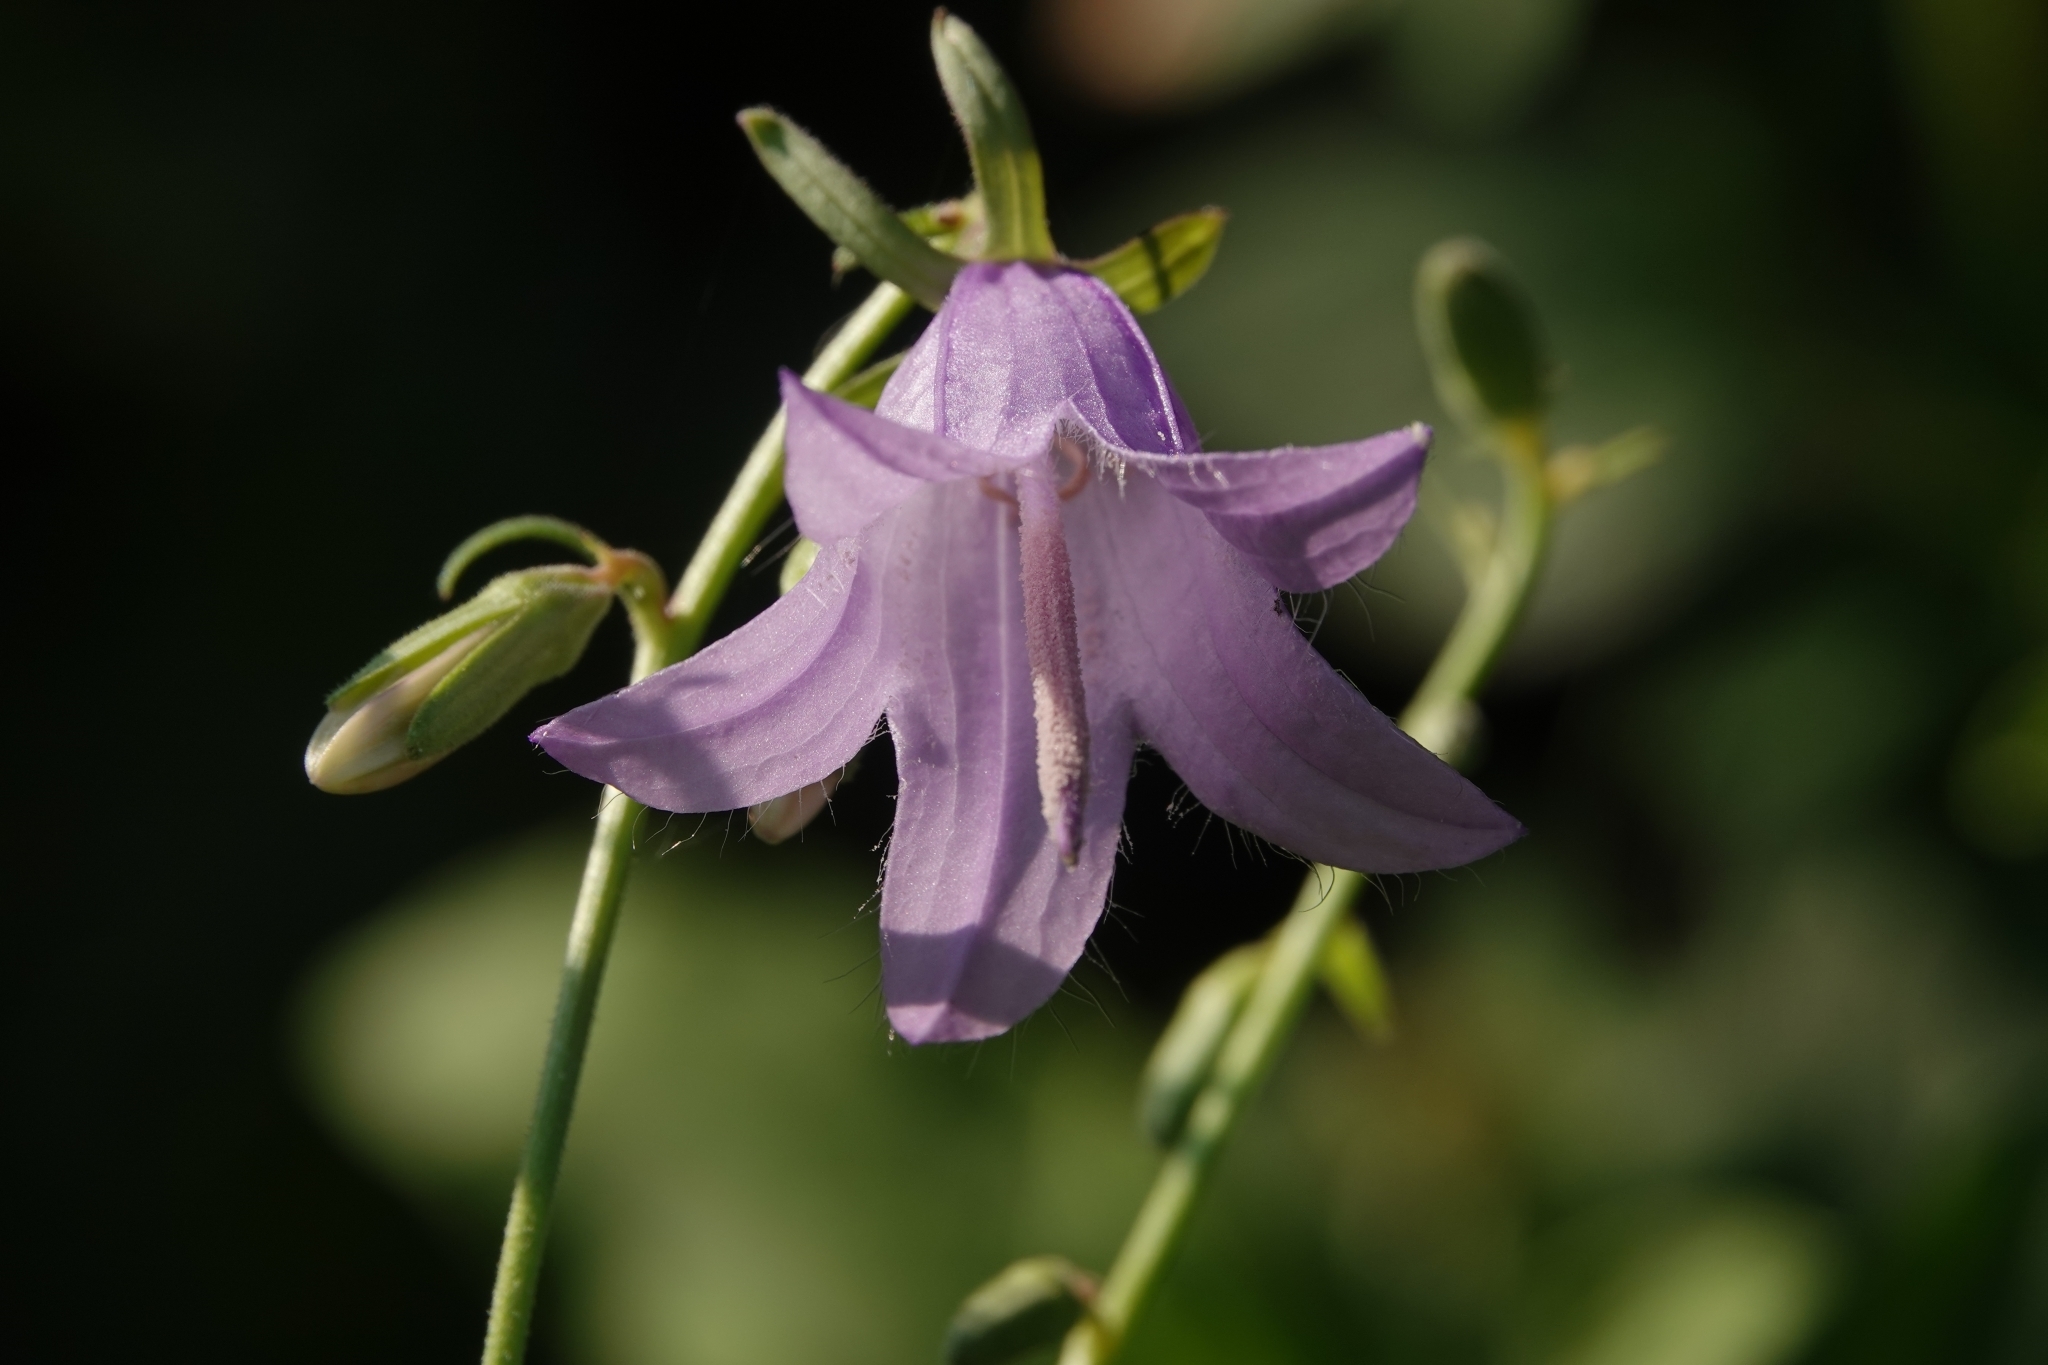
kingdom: Plantae
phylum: Tracheophyta
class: Magnoliopsida
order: Asterales
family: Campanulaceae
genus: Campanula
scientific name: Campanula rapunculoides
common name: Creeping bellflower
